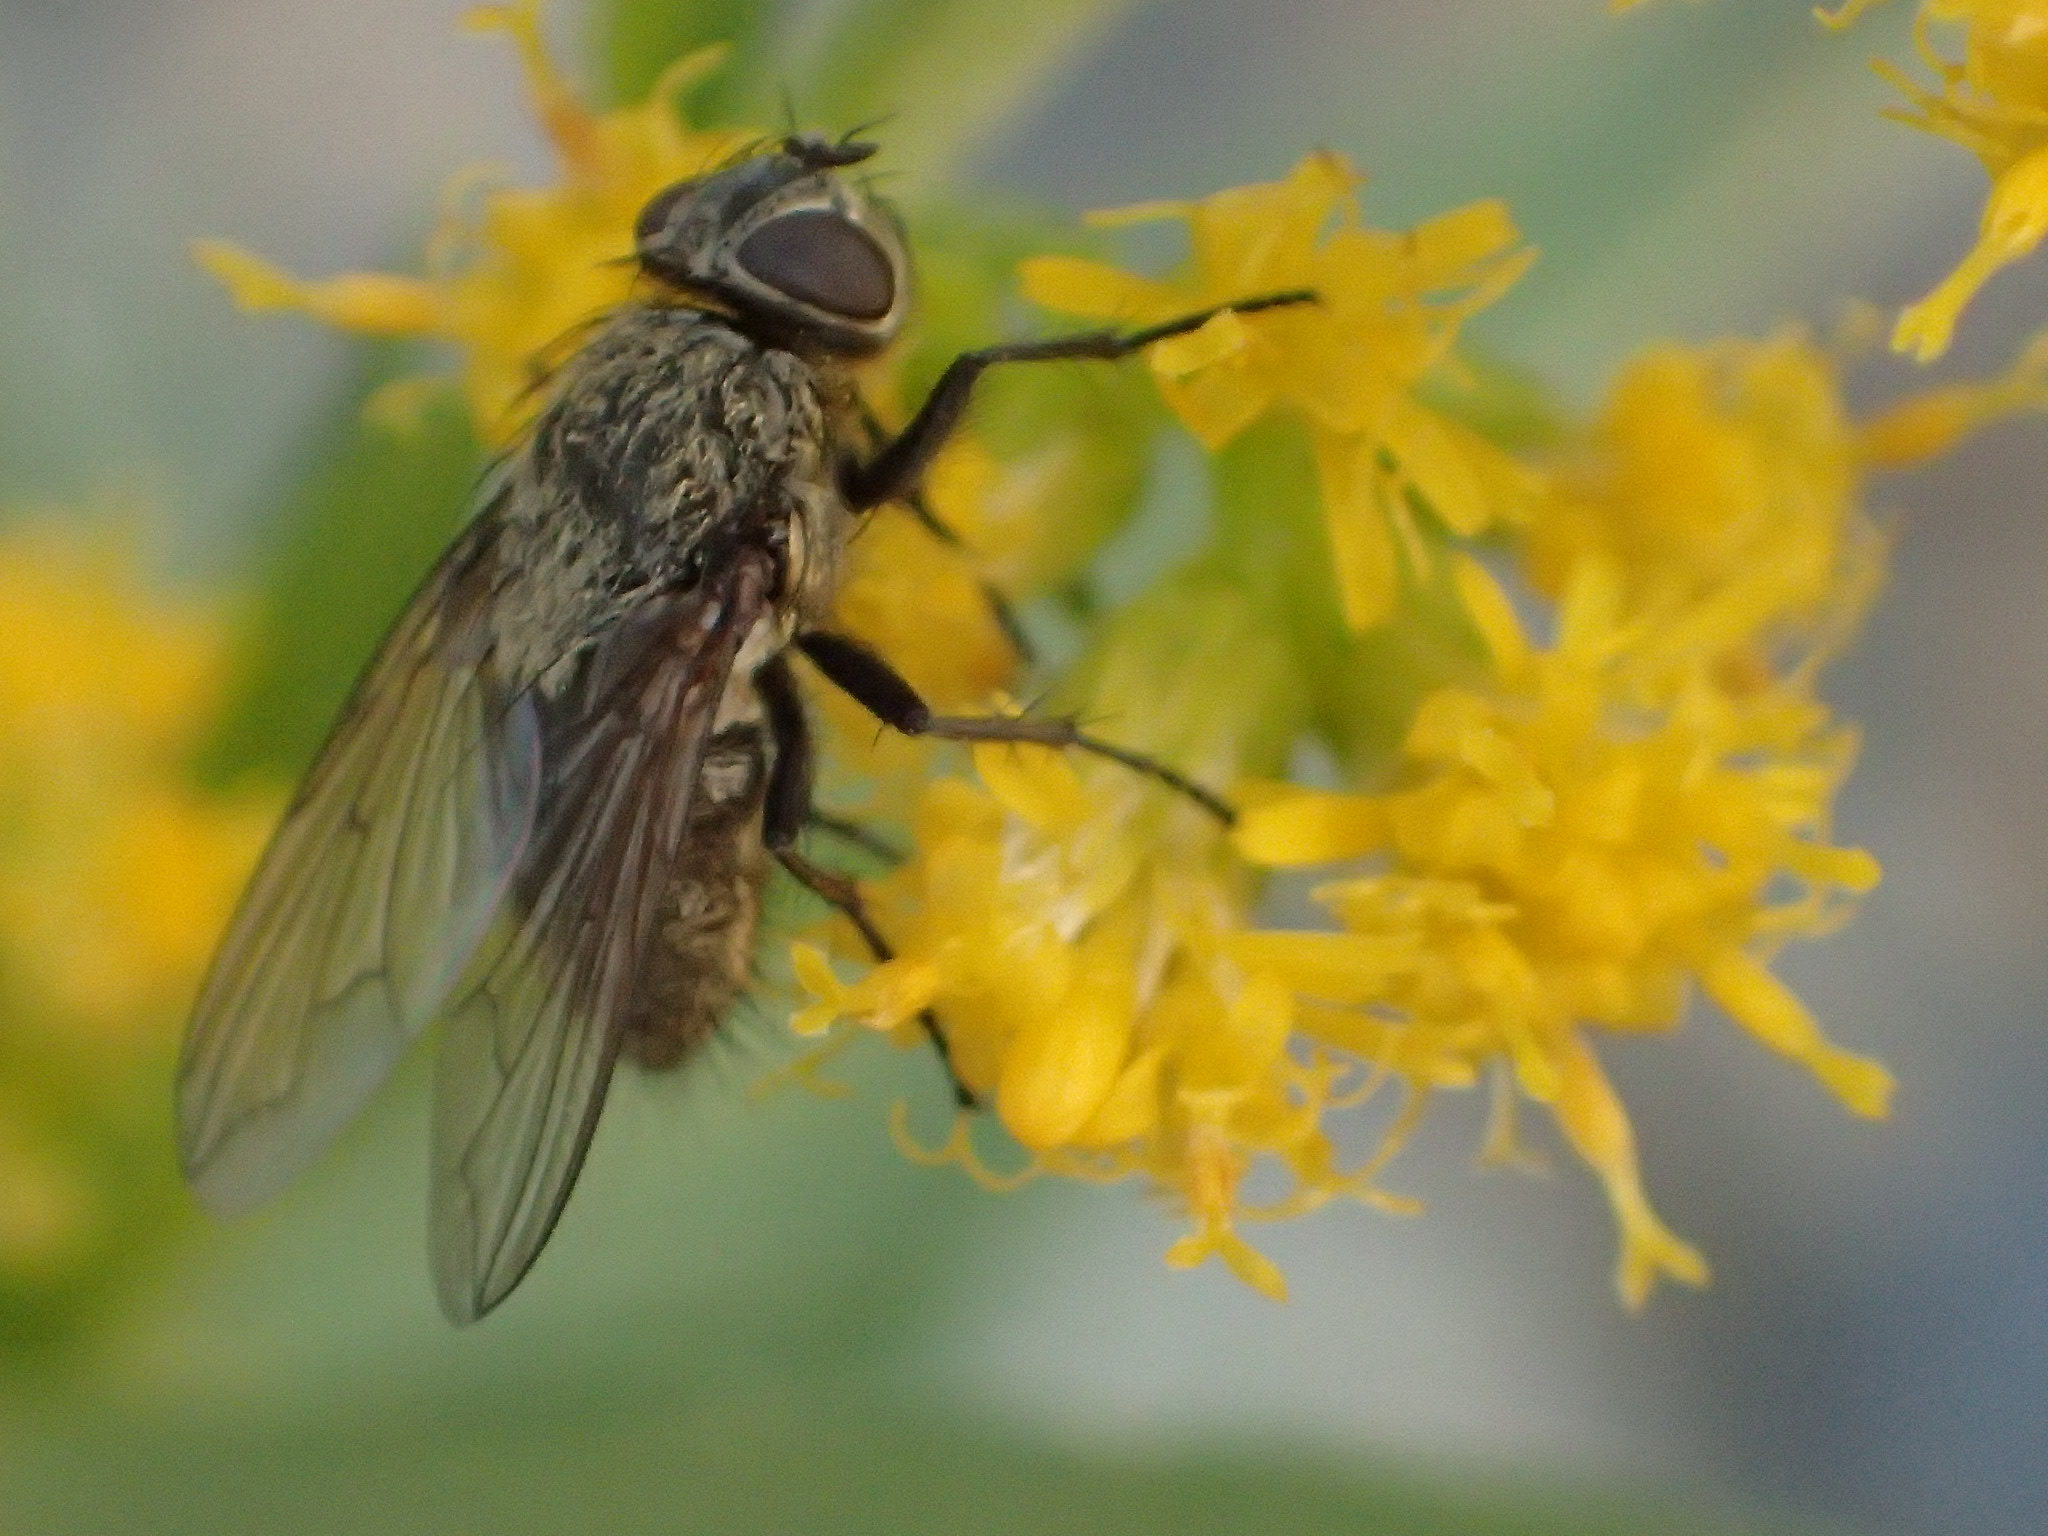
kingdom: Animalia
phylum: Arthropoda
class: Insecta
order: Diptera
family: Polleniidae
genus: Pollenia
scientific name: Pollenia
